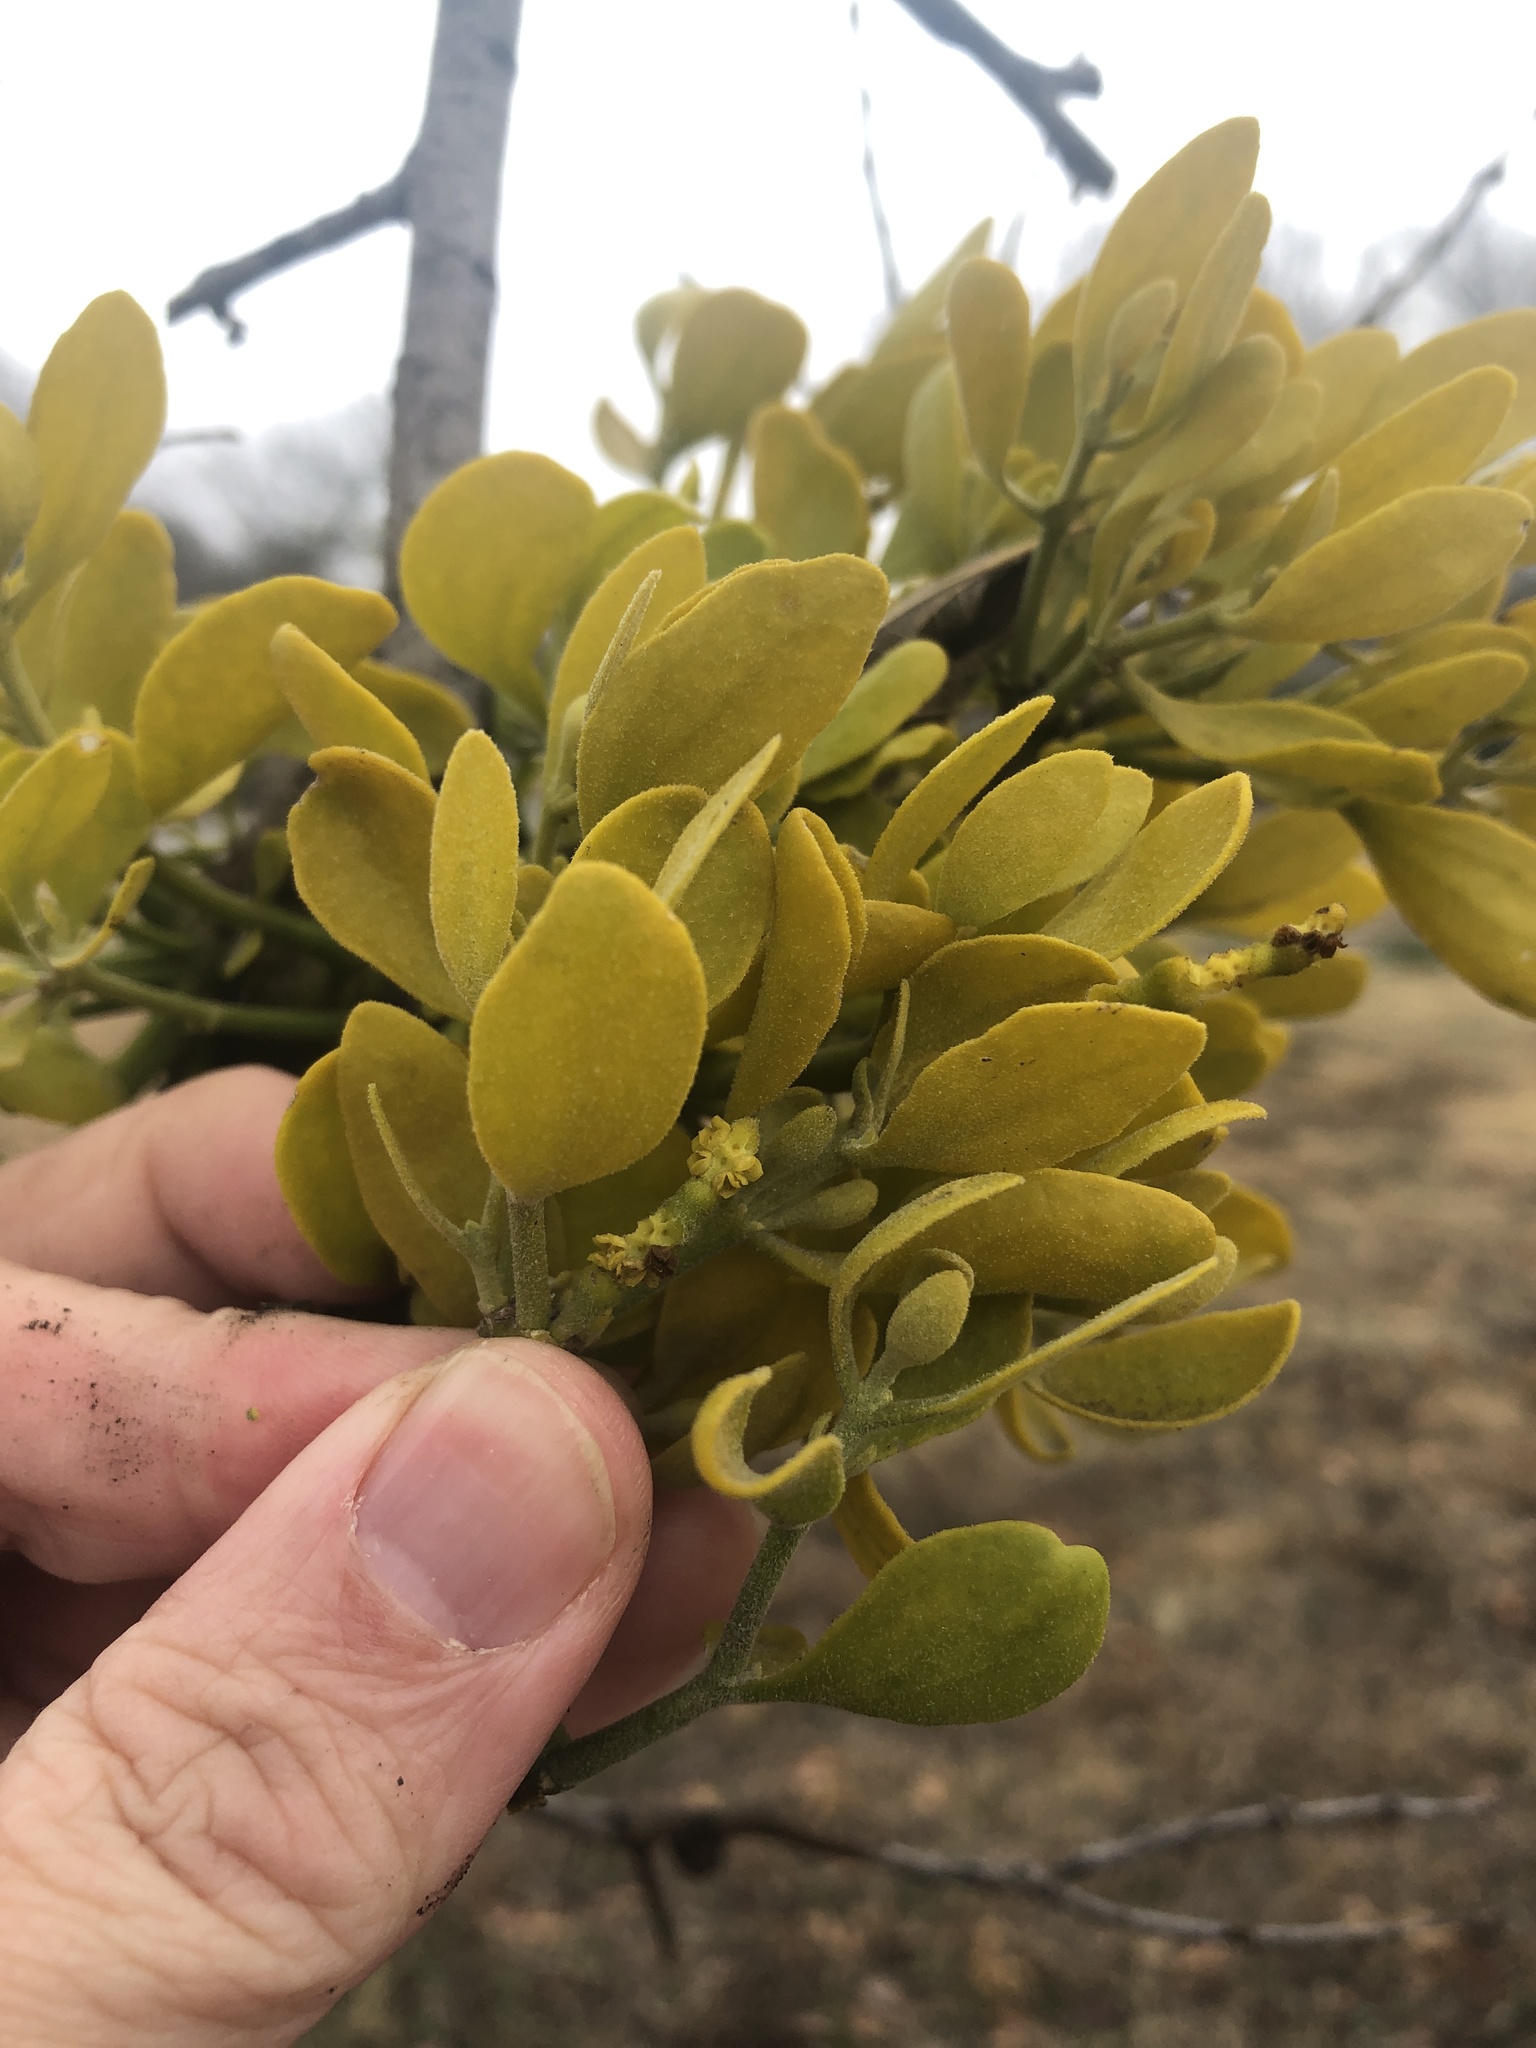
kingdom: Plantae
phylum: Tracheophyta
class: Magnoliopsida
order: Santalales
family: Viscaceae
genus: Phoradendron
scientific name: Phoradendron leucarpum
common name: Pacific mistletoe
